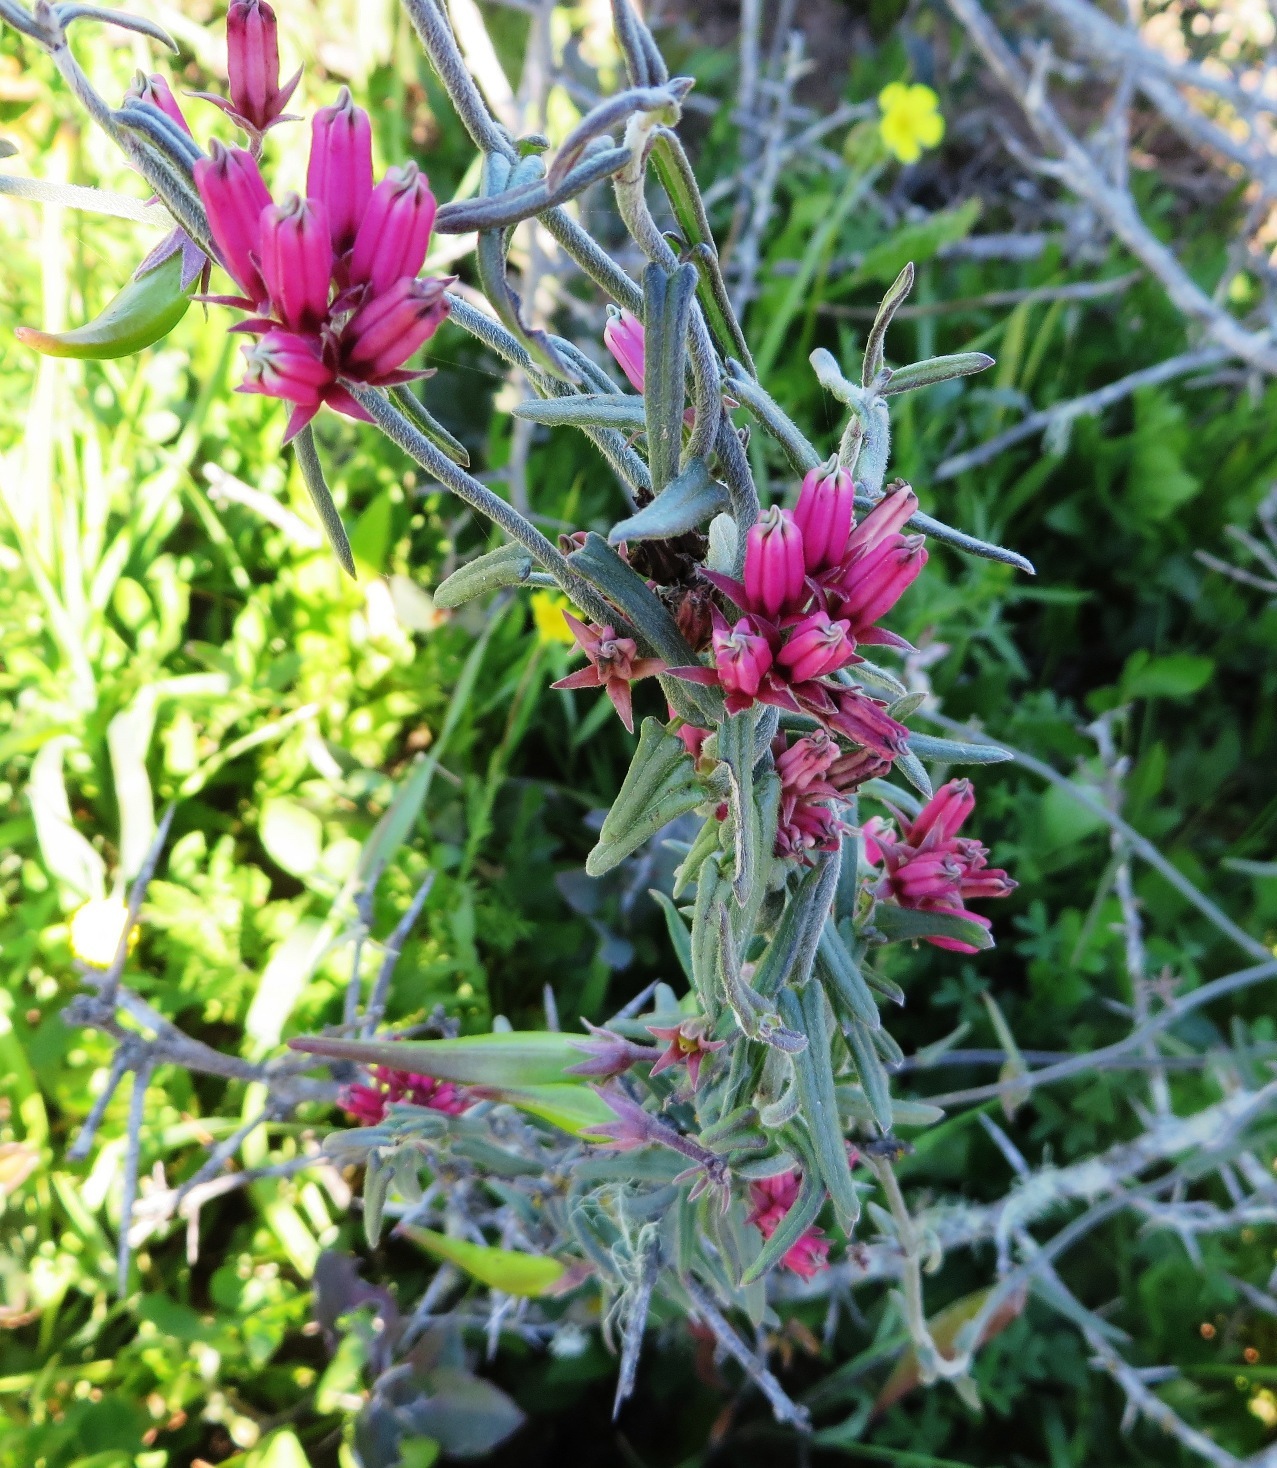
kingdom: Plantae
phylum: Tracheophyta
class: Magnoliopsida
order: Gentianales
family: Apocynaceae
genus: Microloma
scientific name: Microloma sagittatum
